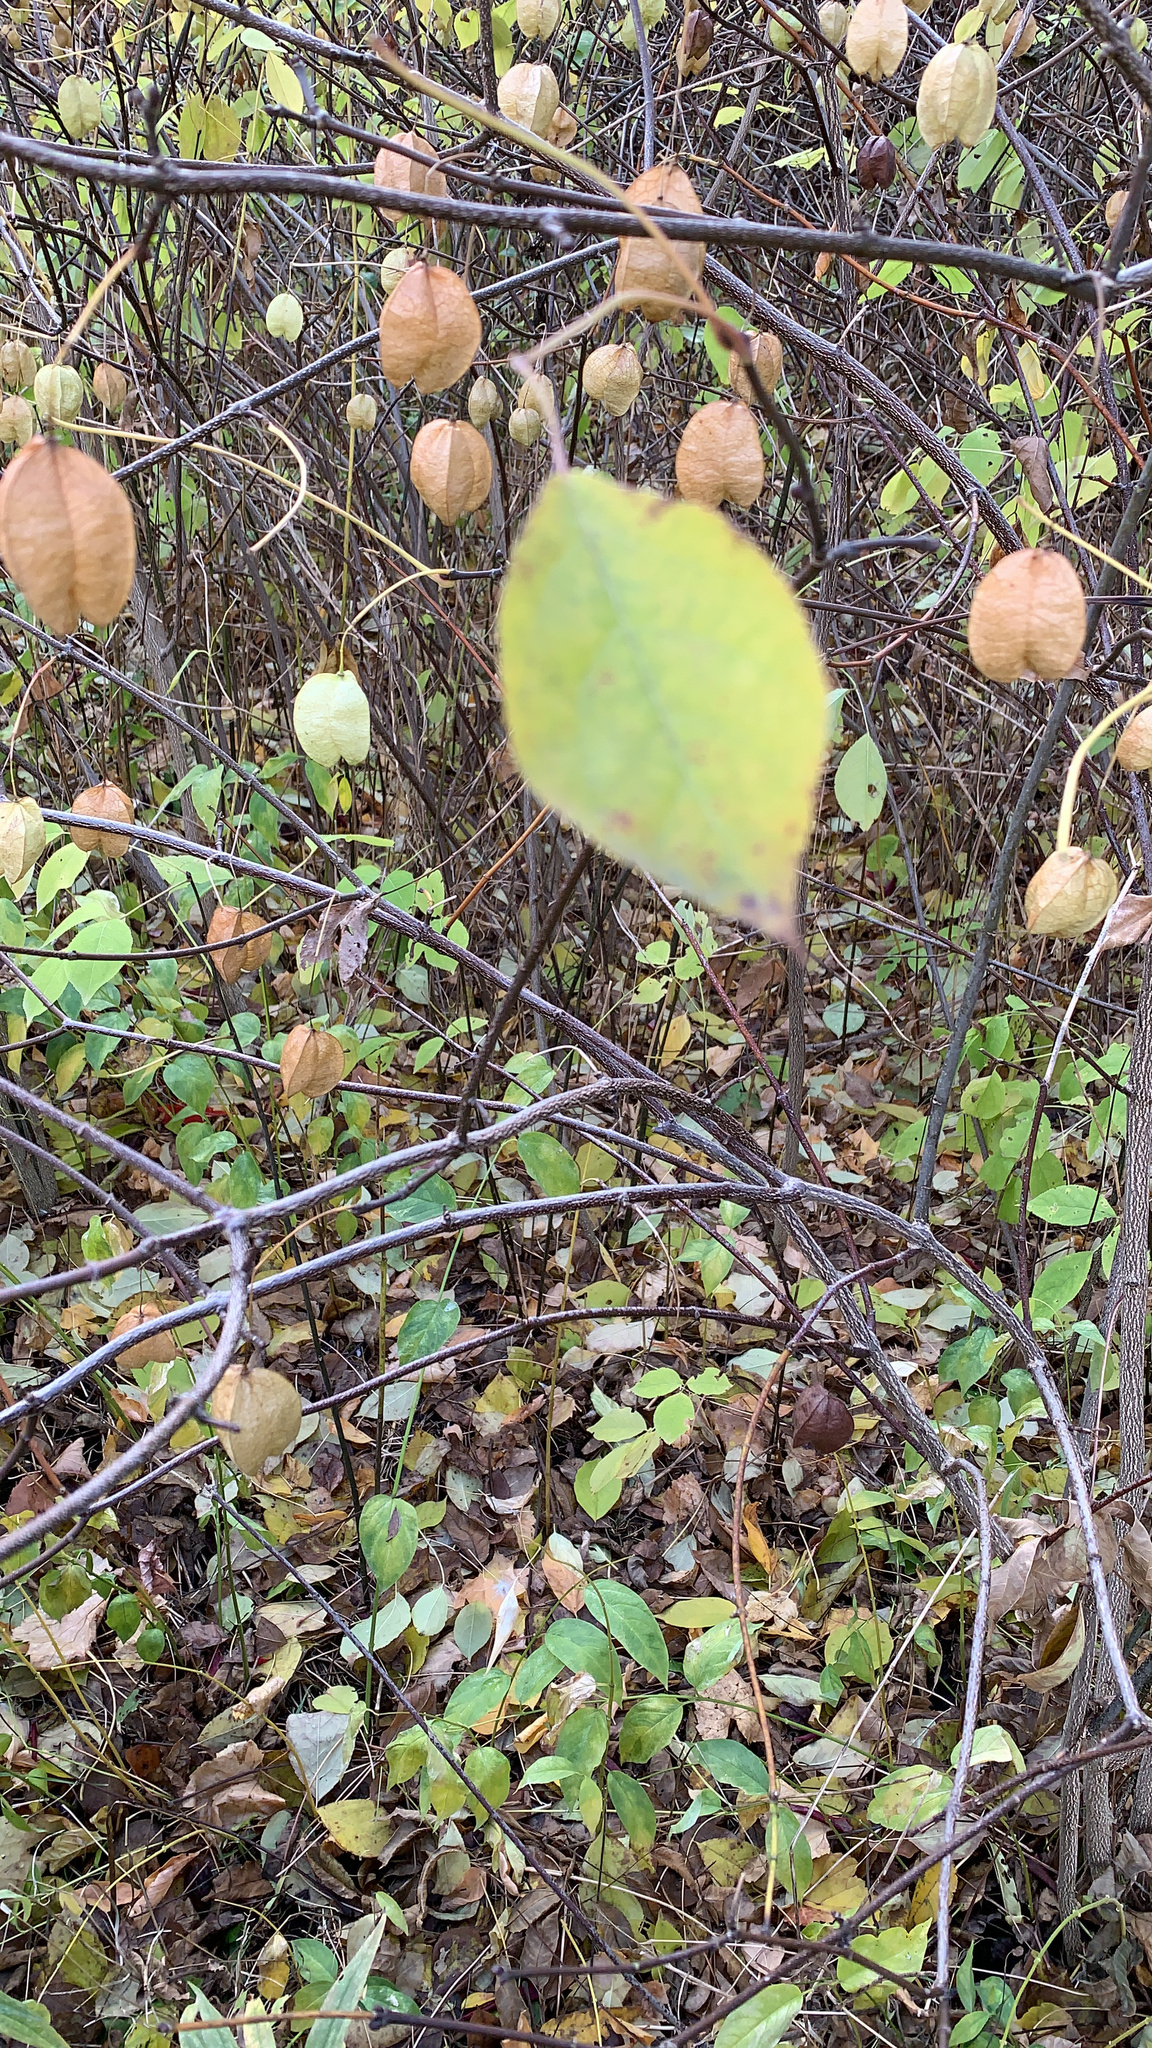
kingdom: Plantae
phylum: Tracheophyta
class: Magnoliopsida
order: Crossosomatales
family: Staphyleaceae
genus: Staphylea
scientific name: Staphylea trifolia
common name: American bladdernut
